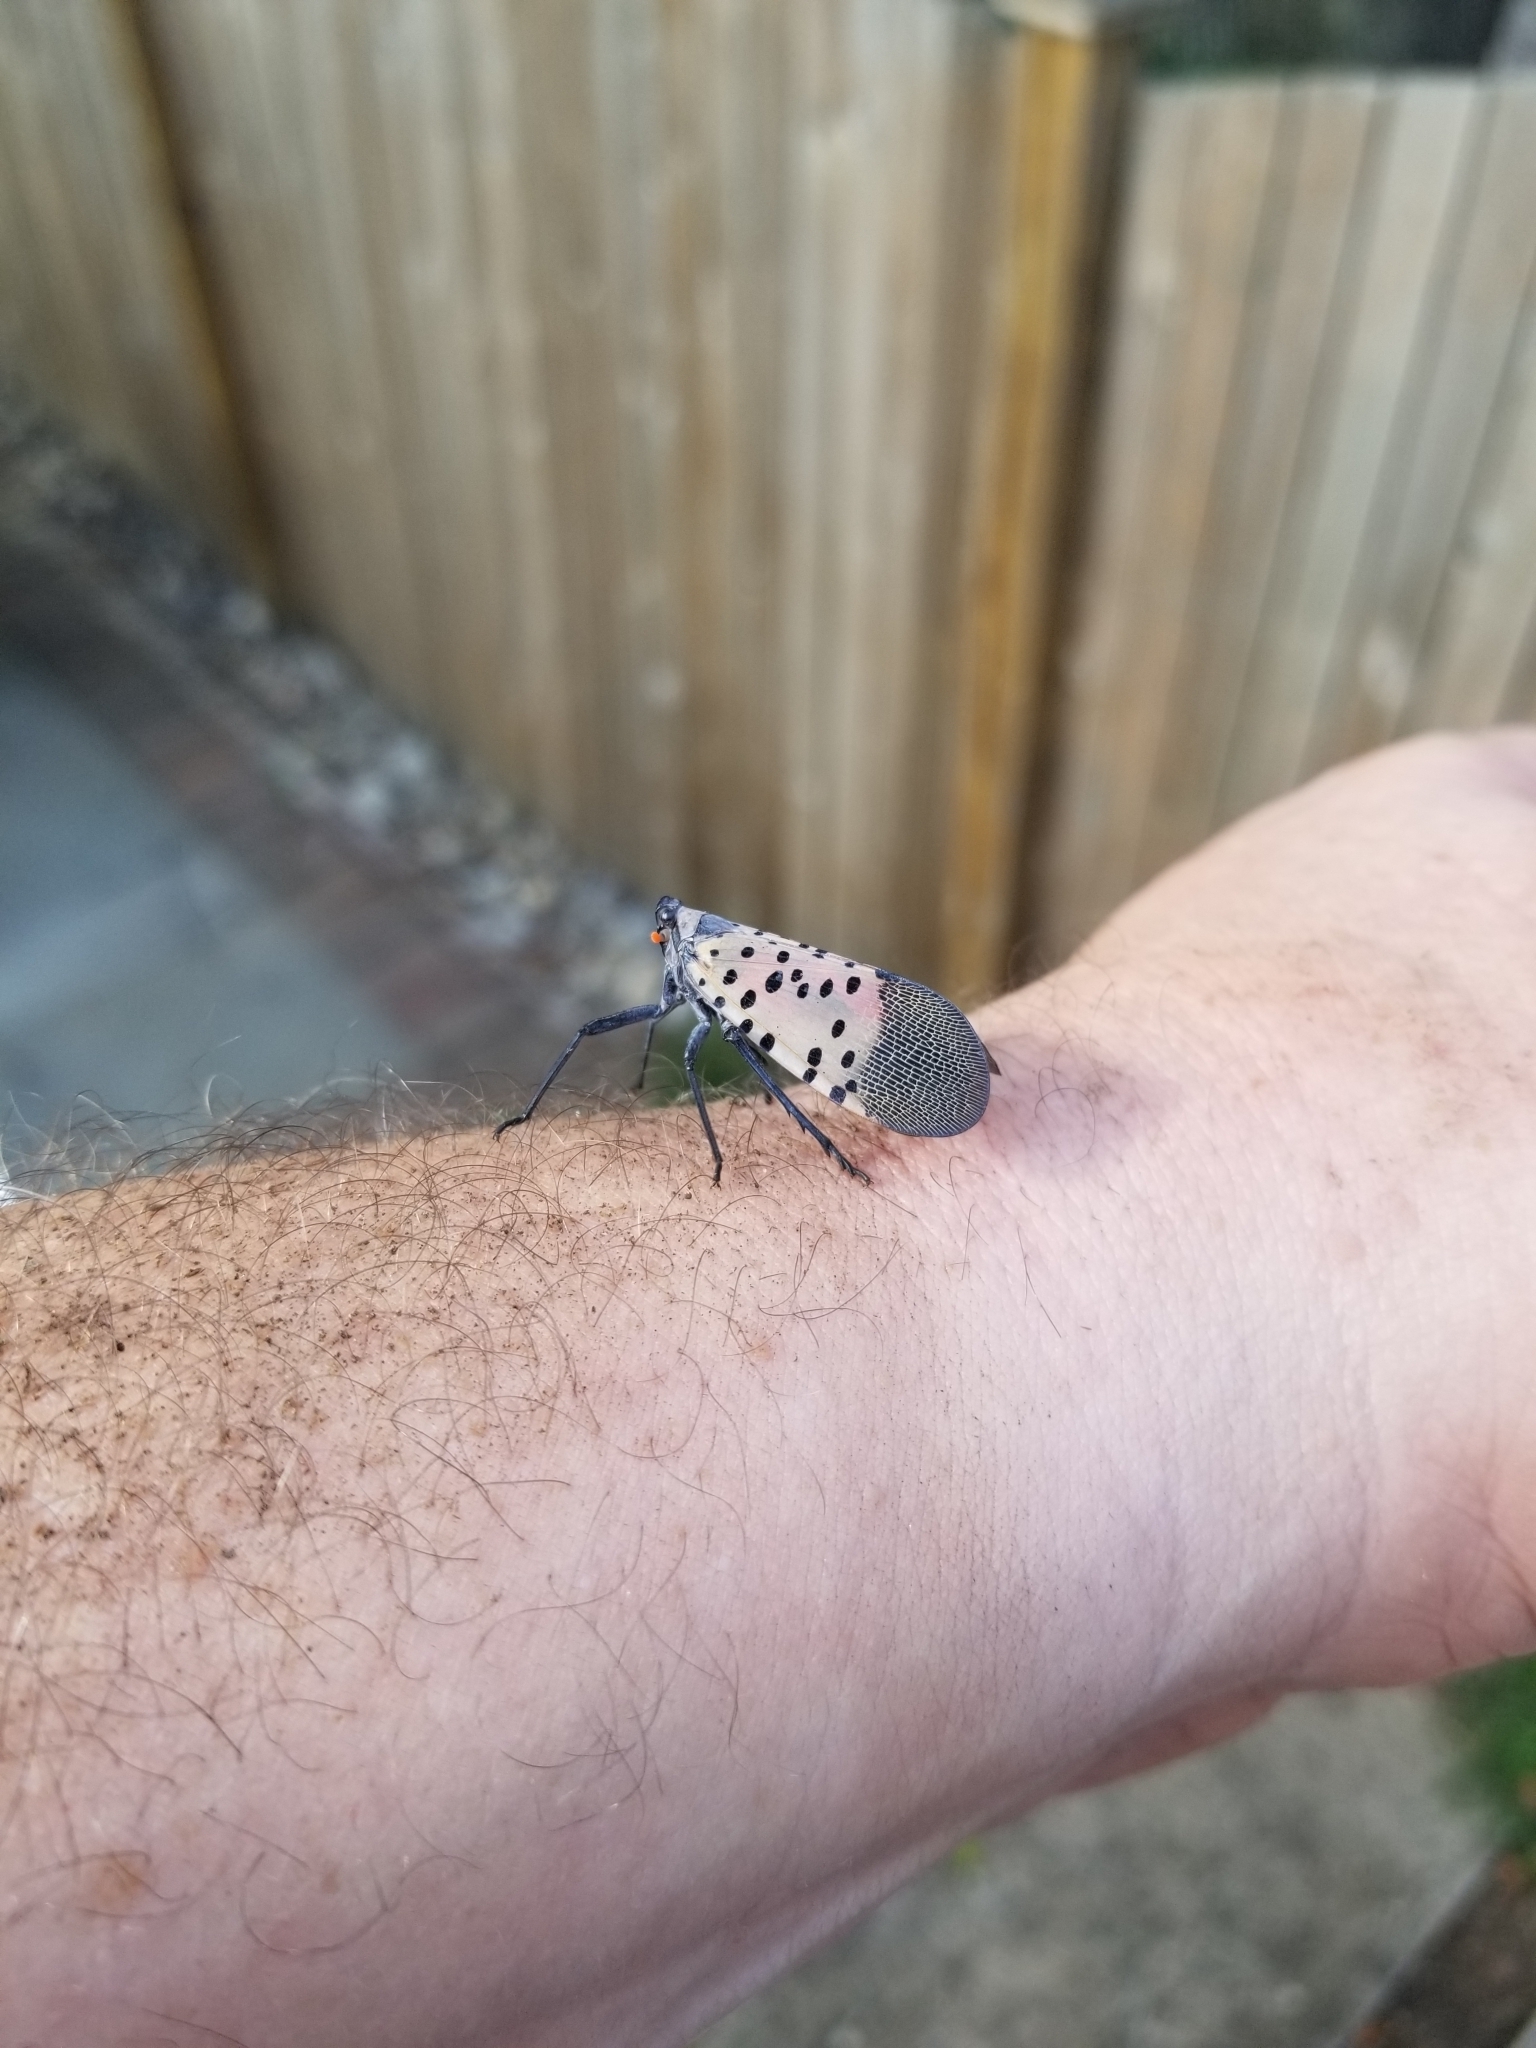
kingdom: Animalia
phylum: Arthropoda
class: Insecta
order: Hemiptera
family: Fulgoridae
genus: Lycorma
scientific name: Lycorma delicatula
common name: Spotted lanternfly
